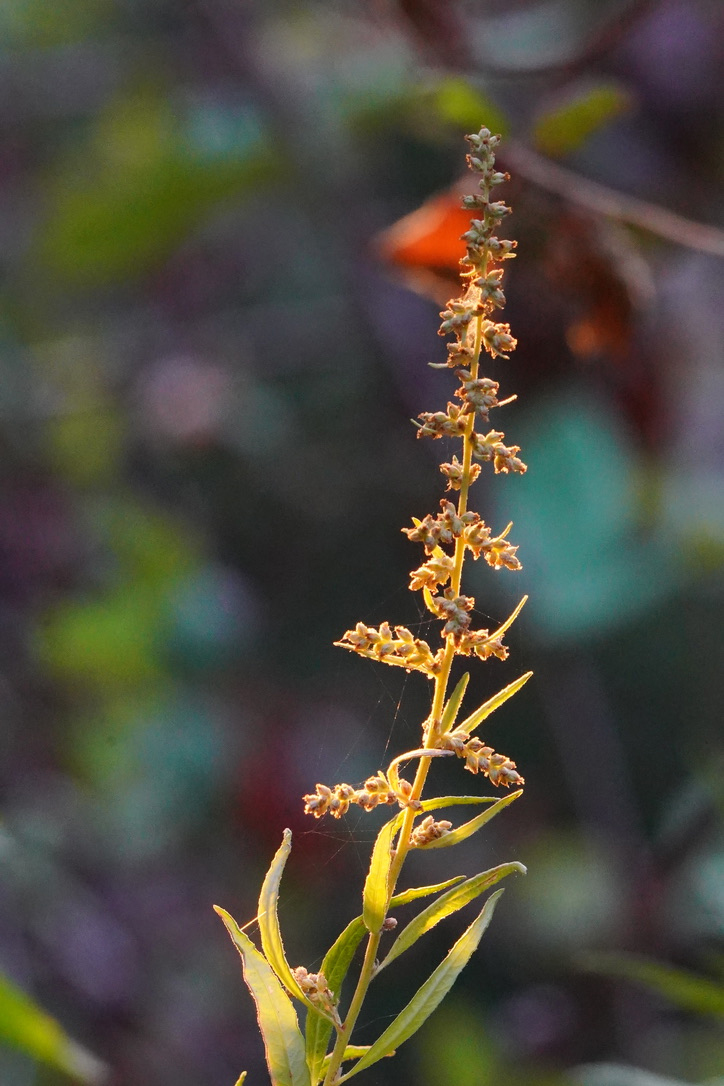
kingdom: Plantae
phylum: Tracheophyta
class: Magnoliopsida
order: Asterales
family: Asteraceae
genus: Artemisia
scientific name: Artemisia douglasiana
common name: Northwest mugwort
